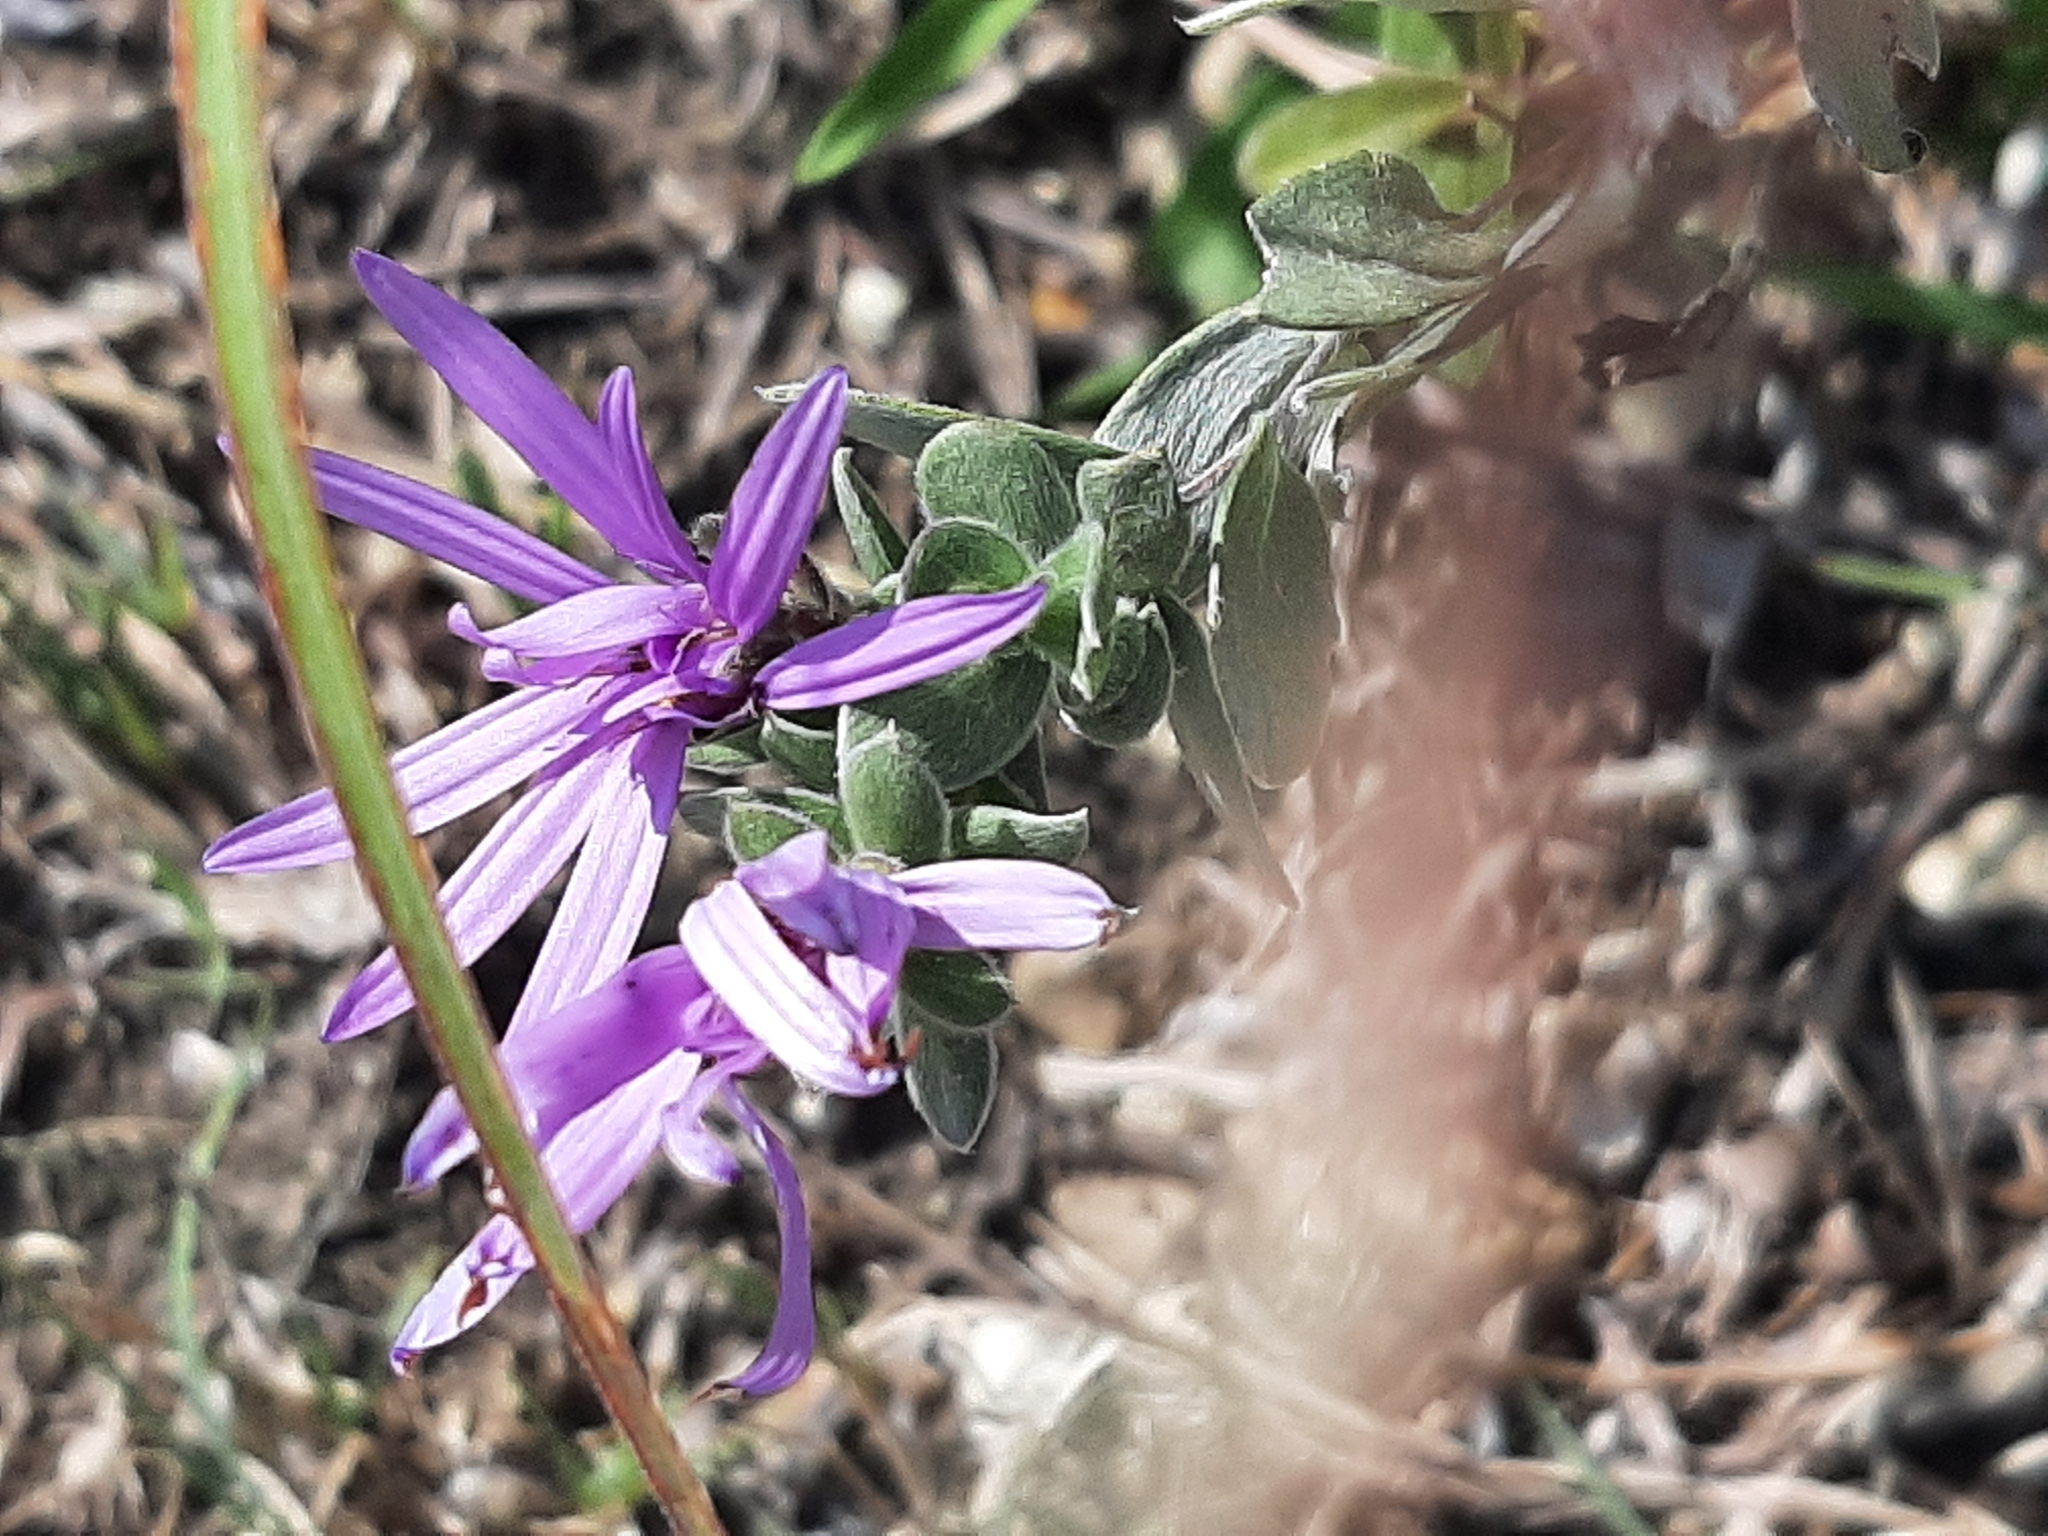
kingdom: Plantae
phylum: Tracheophyta
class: Magnoliopsida
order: Asterales
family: Asteraceae
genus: Symphyotrichum
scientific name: Symphyotrichum sericeum
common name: Silky aster
